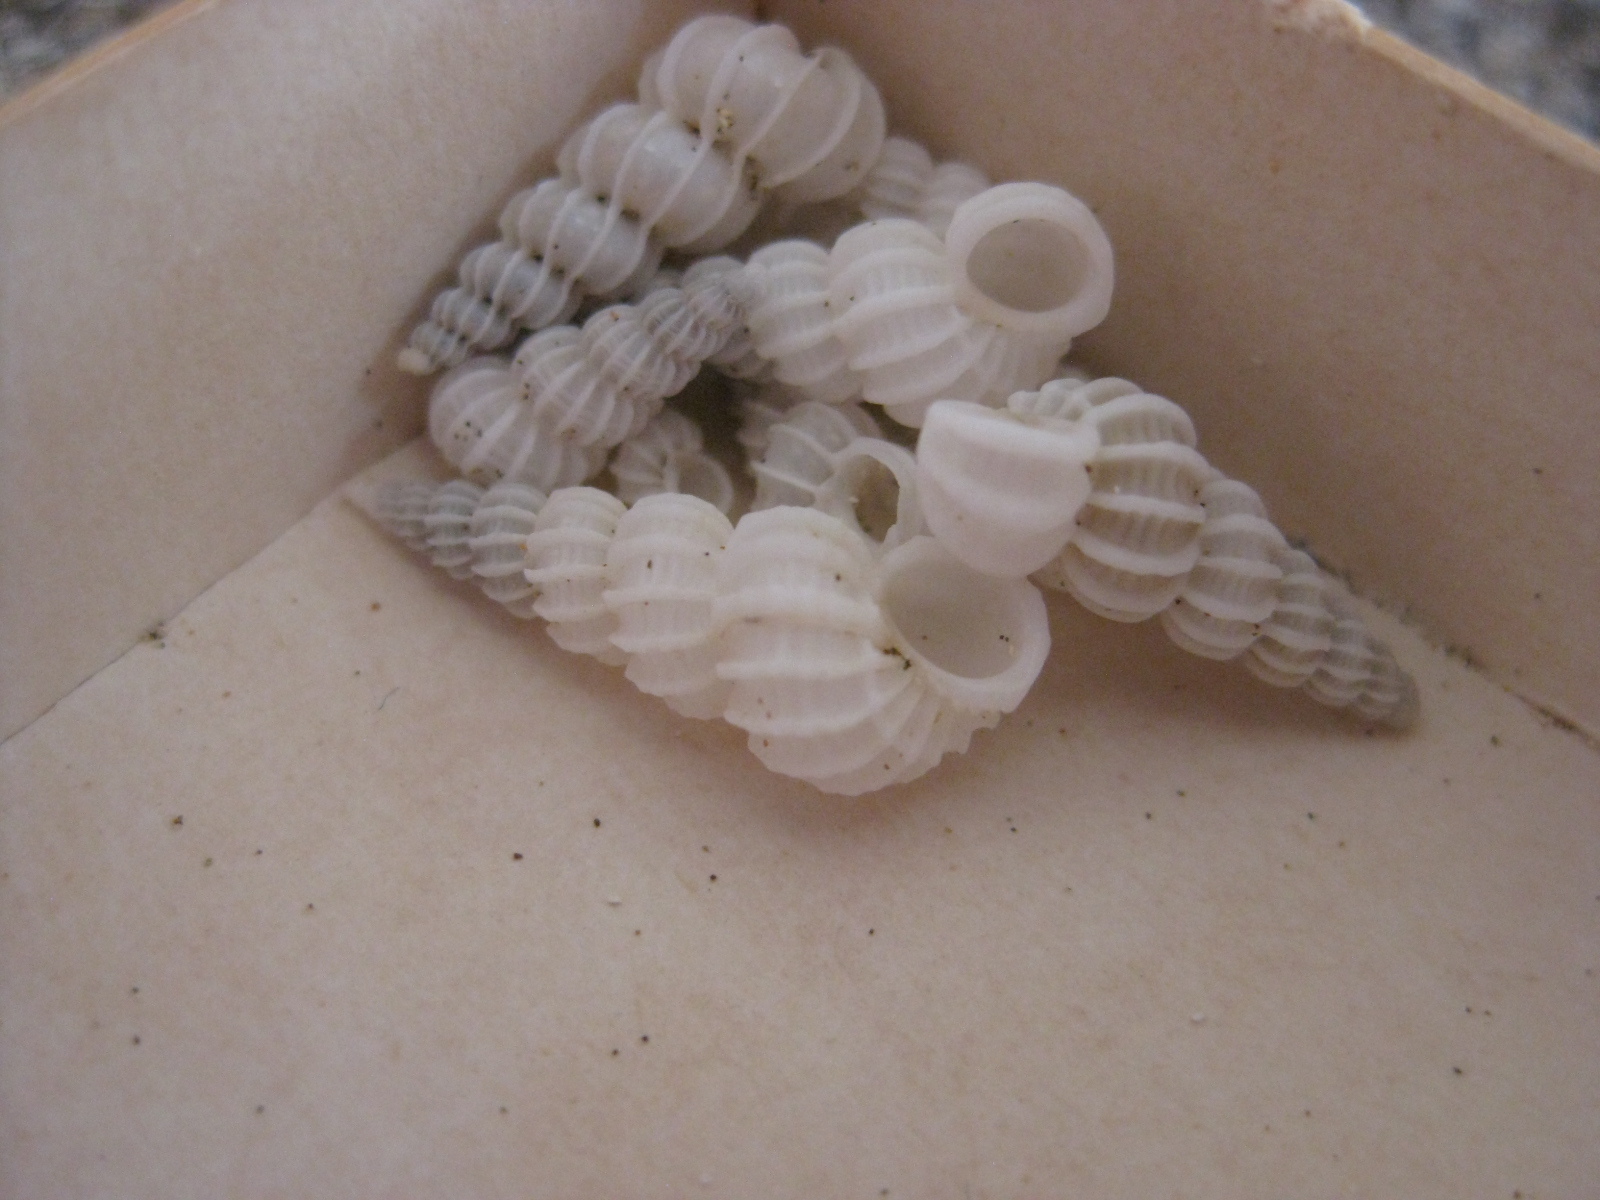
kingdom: Animalia
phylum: Mollusca
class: Gastropoda
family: Epitoniidae
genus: Cirsotrema
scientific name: Cirsotrema zelebori
